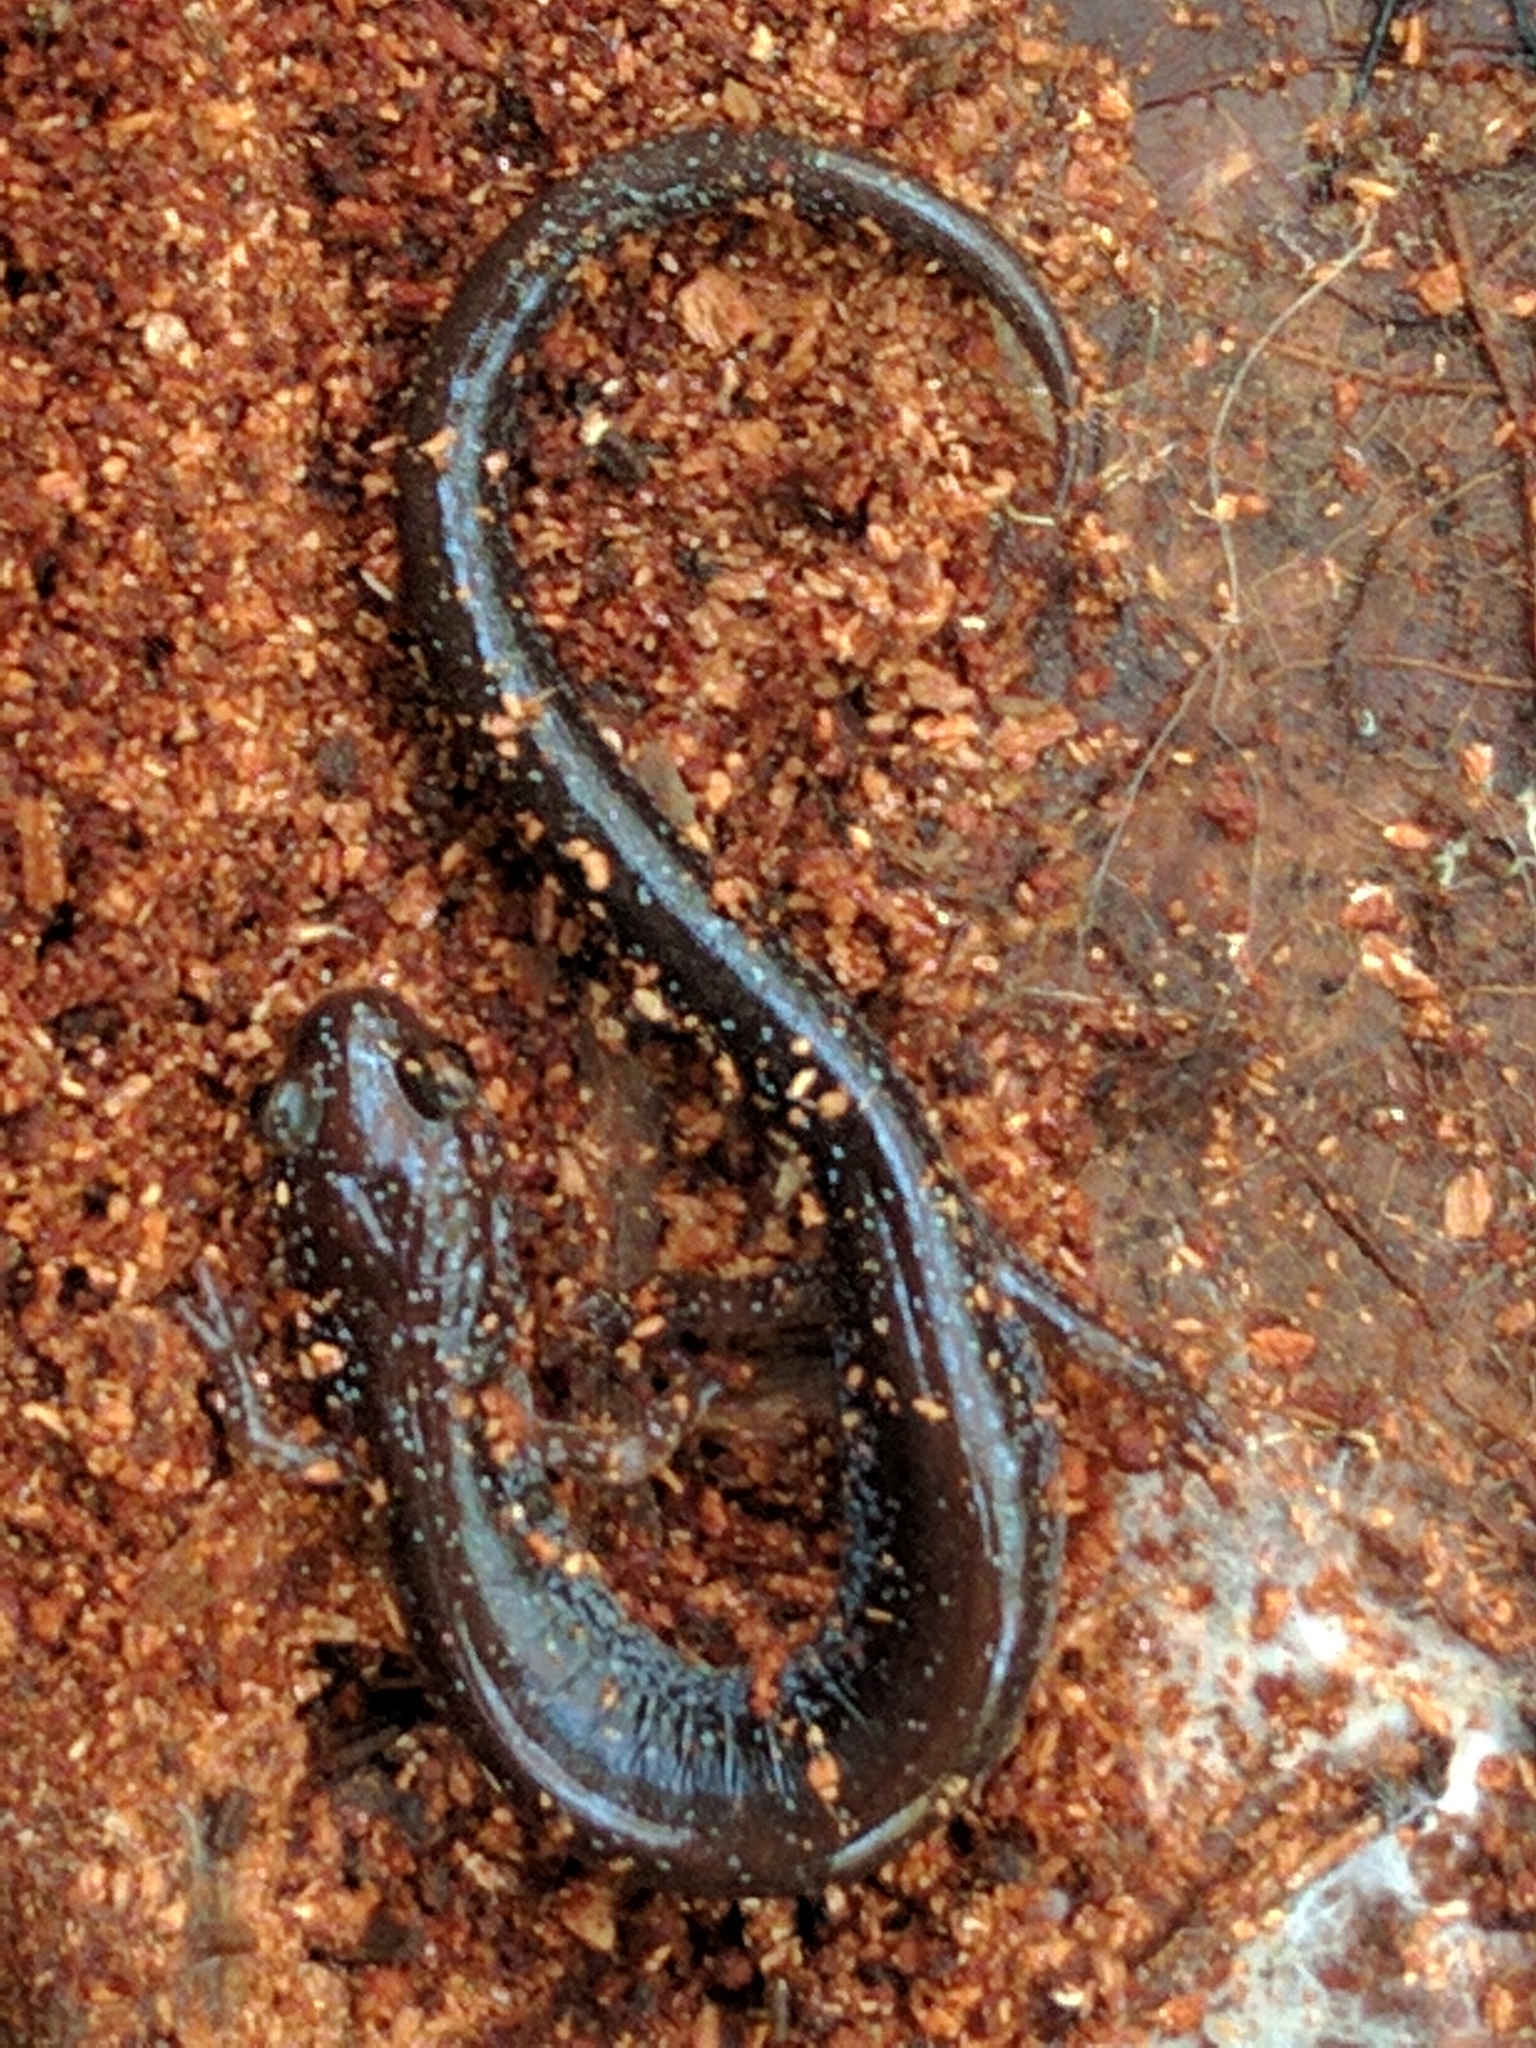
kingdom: Animalia
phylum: Chordata
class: Amphibia
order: Caudata
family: Plethodontidae
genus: Plethodon
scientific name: Plethodon cinereus
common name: Redback salamander
